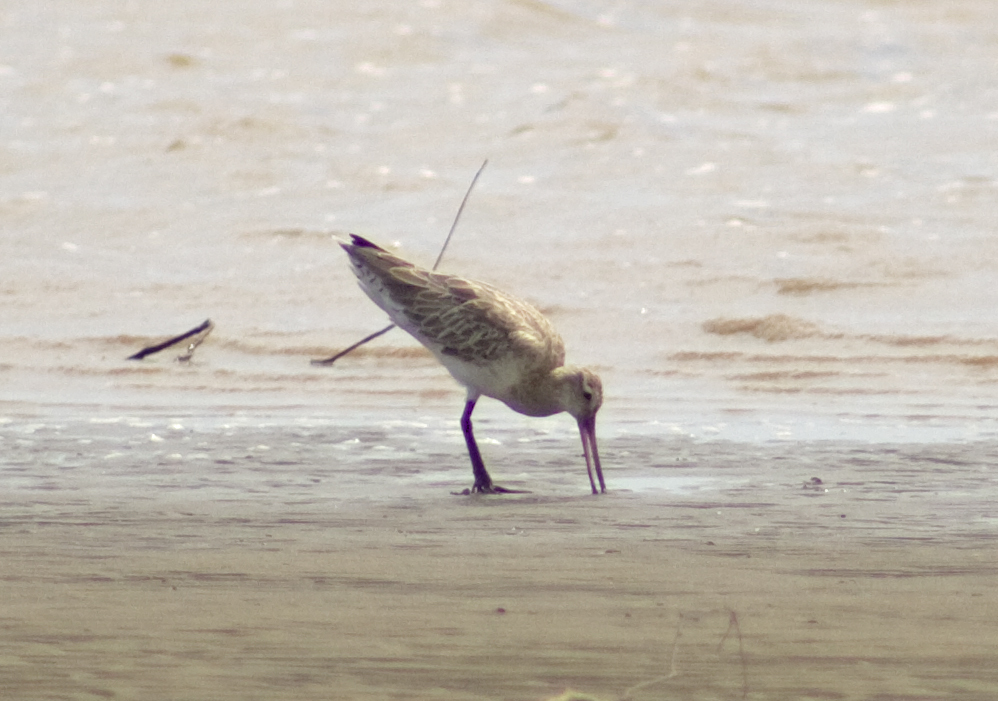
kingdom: Animalia
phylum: Chordata
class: Aves
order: Charadriiformes
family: Scolopacidae
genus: Limosa
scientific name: Limosa lapponica
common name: Bar-tailed godwit
